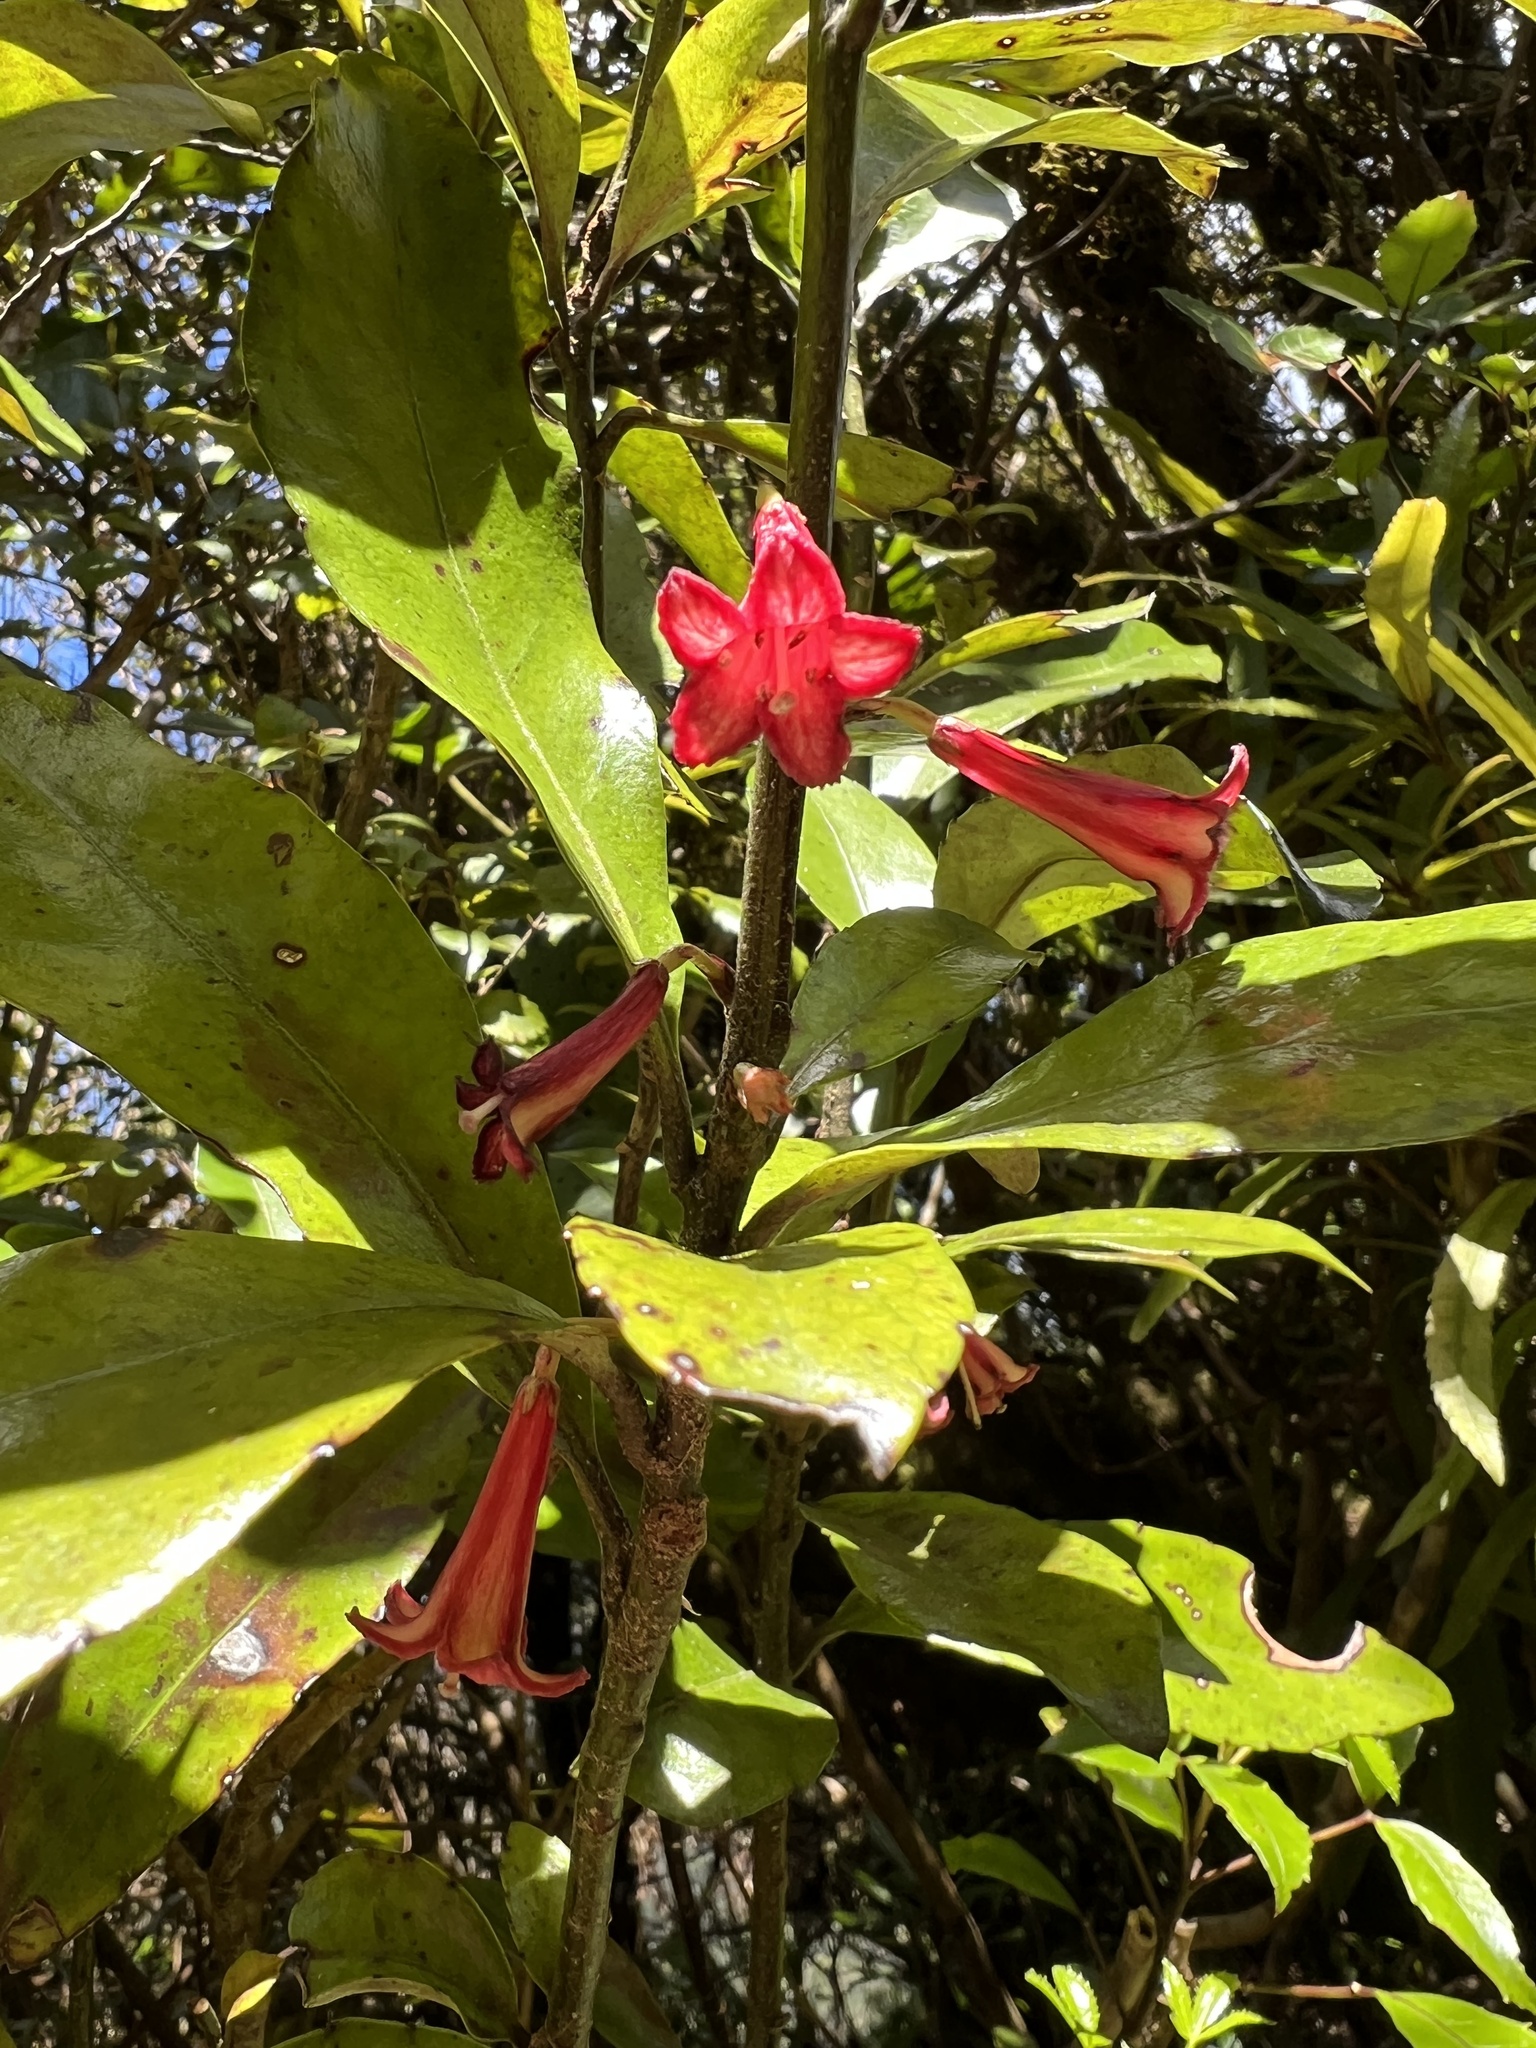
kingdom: Plantae
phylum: Tracheophyta
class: Magnoliopsida
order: Asterales
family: Alseuosmiaceae
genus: Alseuosmia
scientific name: Alseuosmia macrophylla
